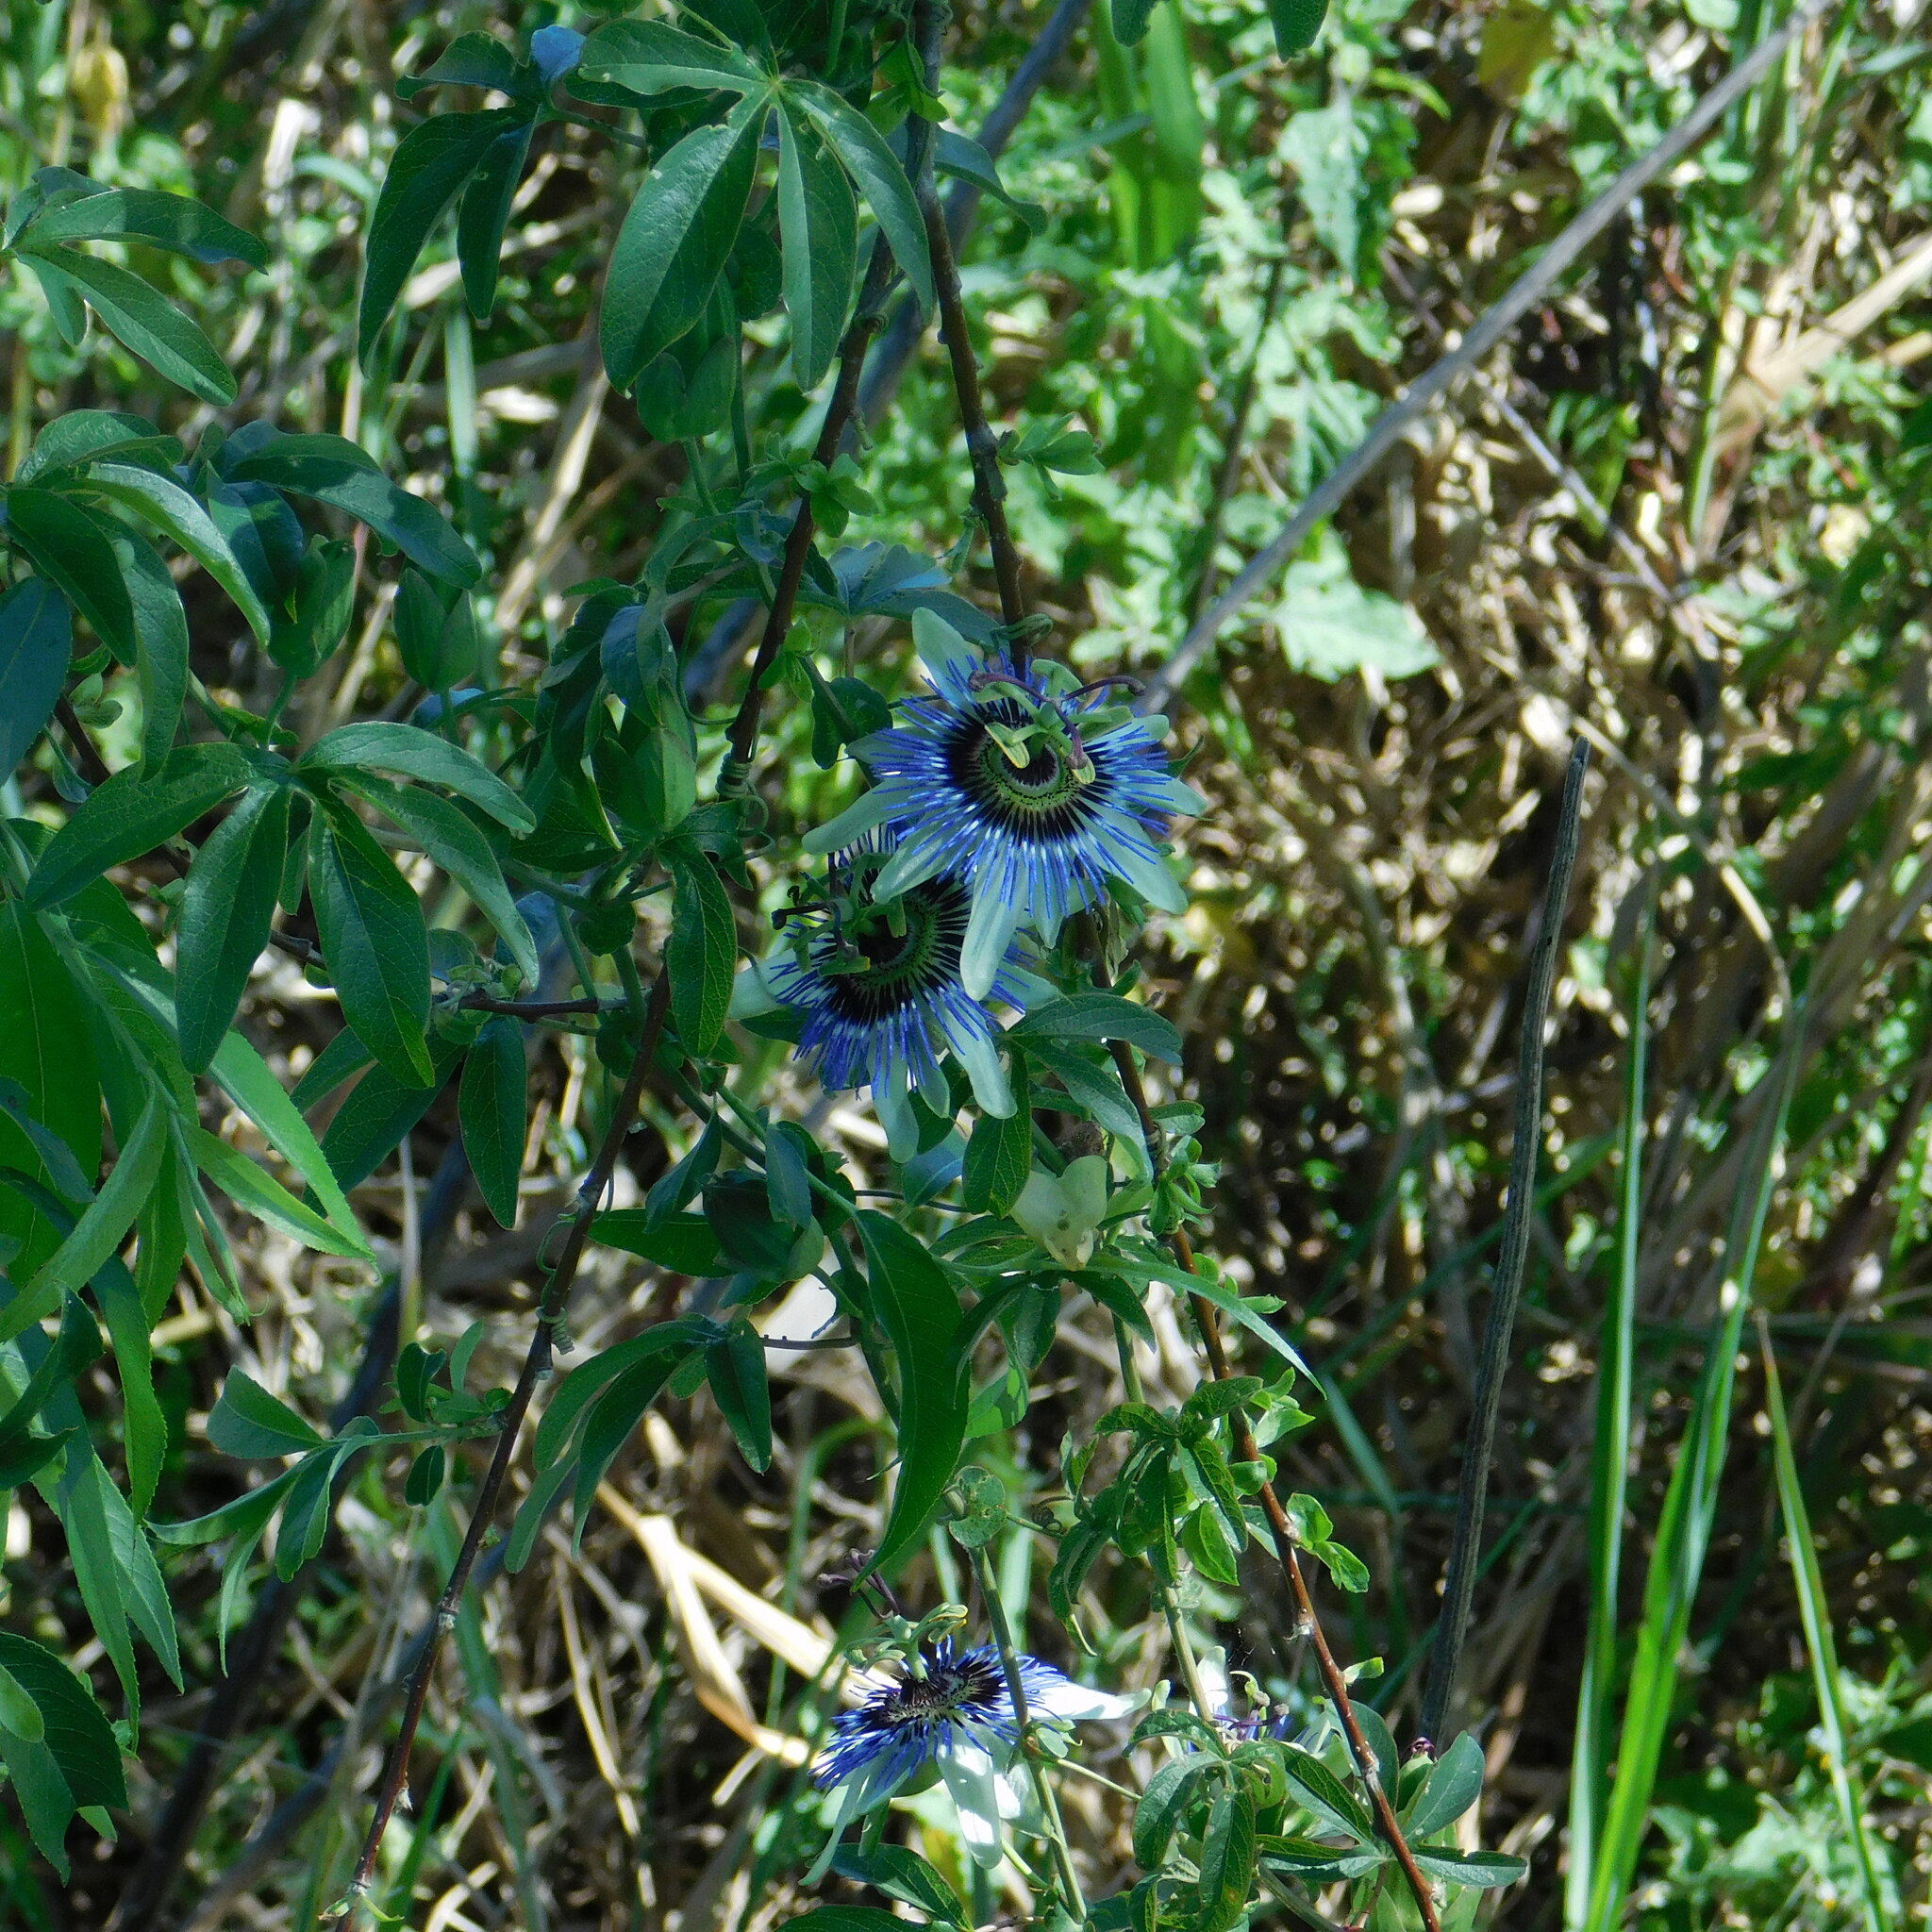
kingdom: Plantae
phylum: Tracheophyta
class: Magnoliopsida
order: Malpighiales
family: Passifloraceae
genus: Passiflora
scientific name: Passiflora caerulea
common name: Blue passionflower
